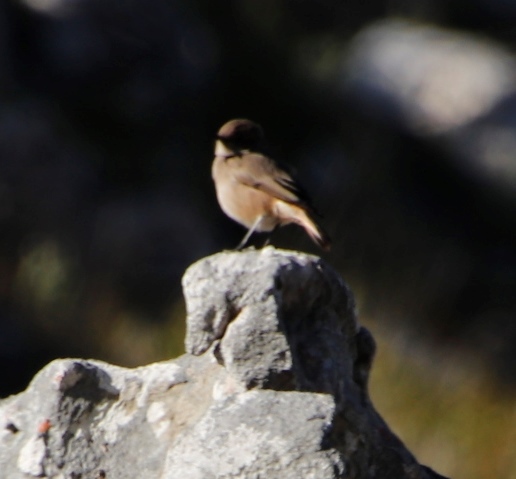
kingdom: Animalia
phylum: Chordata
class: Aves
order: Passeriformes
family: Muscicapidae
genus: Oenanthe
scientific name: Oenanthe familiaris
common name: Familiar chat
